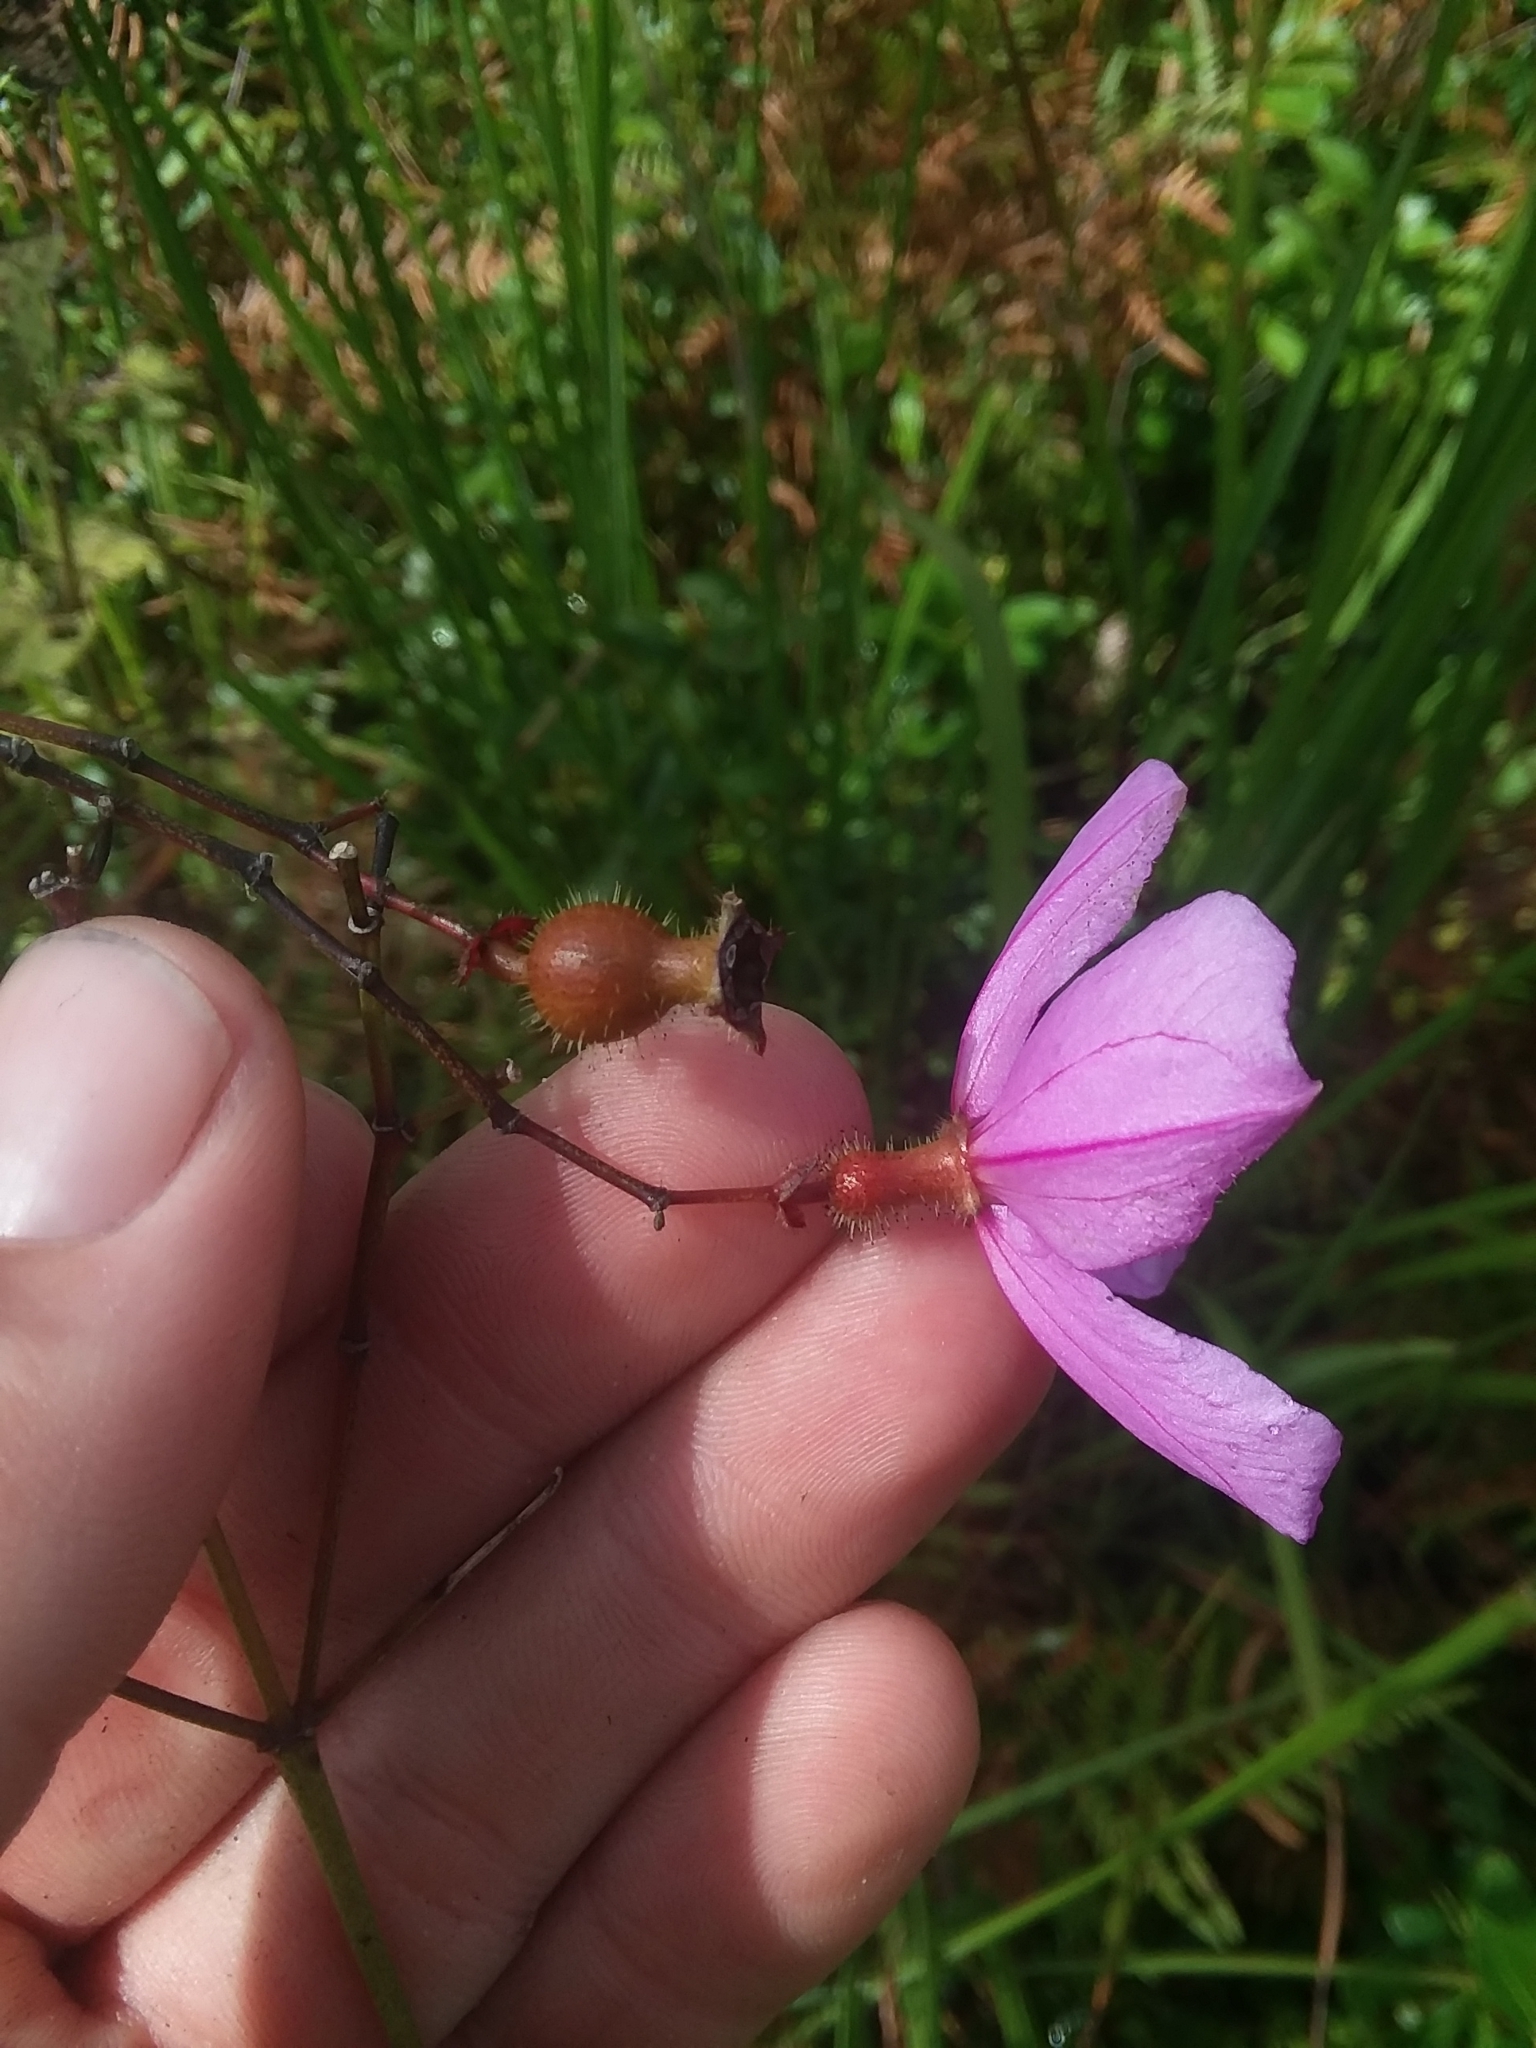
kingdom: Plantae
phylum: Tracheophyta
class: Magnoliopsida
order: Myrtales
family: Melastomataceae
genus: Rhexia
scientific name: Rhexia alifanus
